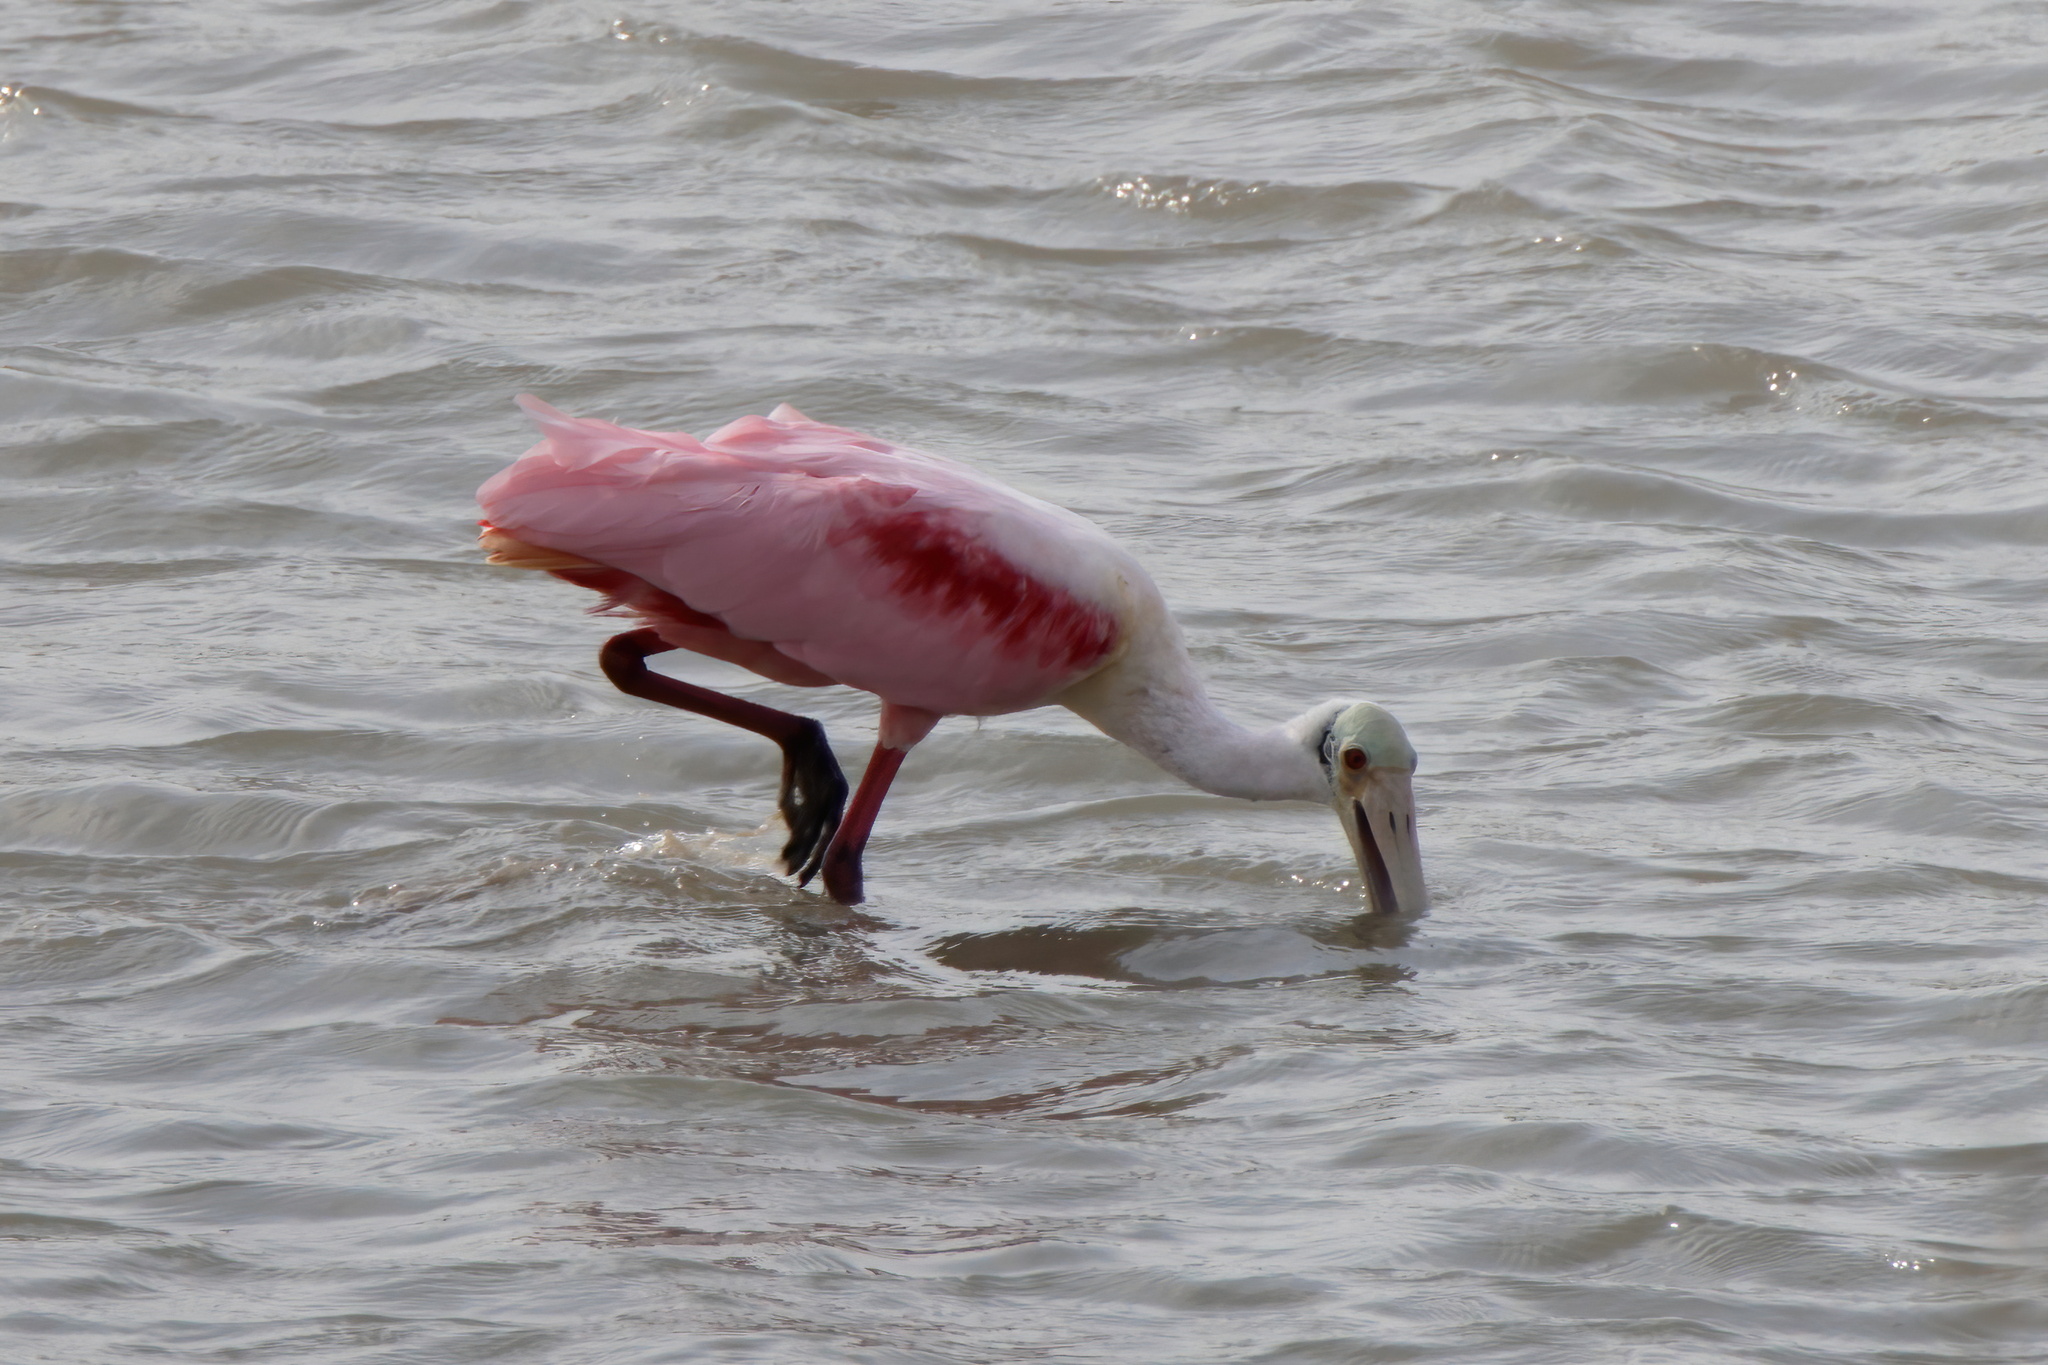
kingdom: Animalia
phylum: Chordata
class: Aves
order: Pelecaniformes
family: Threskiornithidae
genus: Platalea
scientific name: Platalea ajaja
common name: Roseate spoonbill
